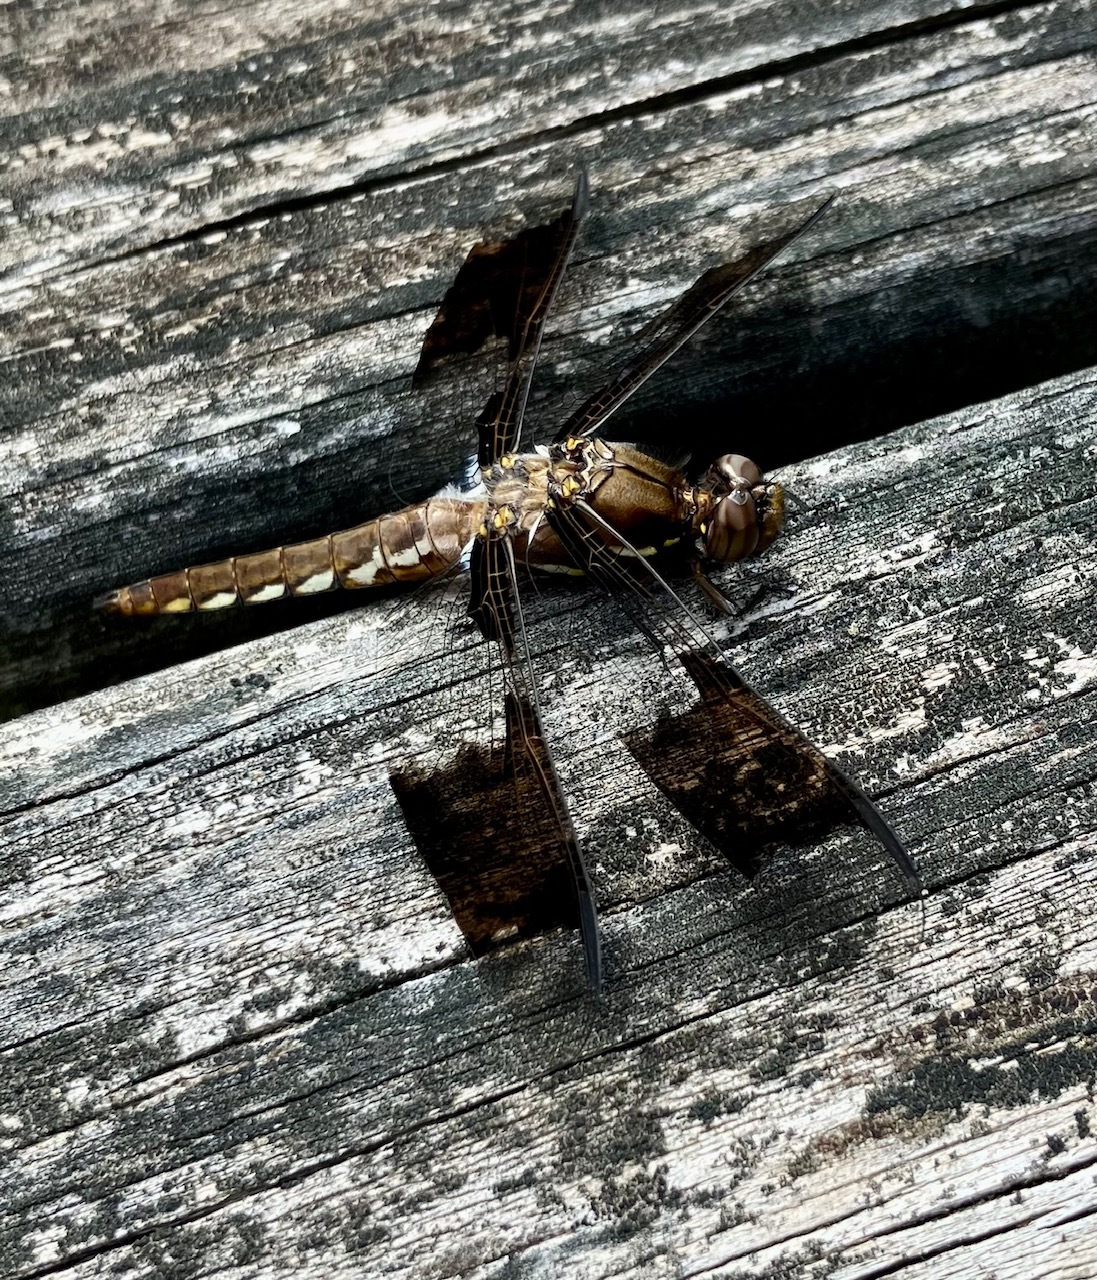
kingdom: Animalia
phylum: Arthropoda
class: Insecta
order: Odonata
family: Libellulidae
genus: Plathemis
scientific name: Plathemis lydia
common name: Common whitetail
